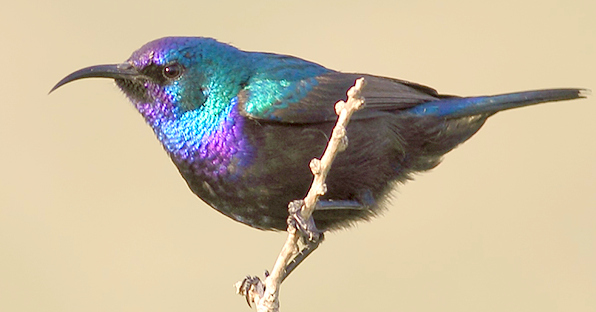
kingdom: Animalia
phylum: Chordata
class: Aves
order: Passeriformes
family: Nectariniidae
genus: Cinnyris
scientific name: Cinnyris osea
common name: Palestine sunbird
